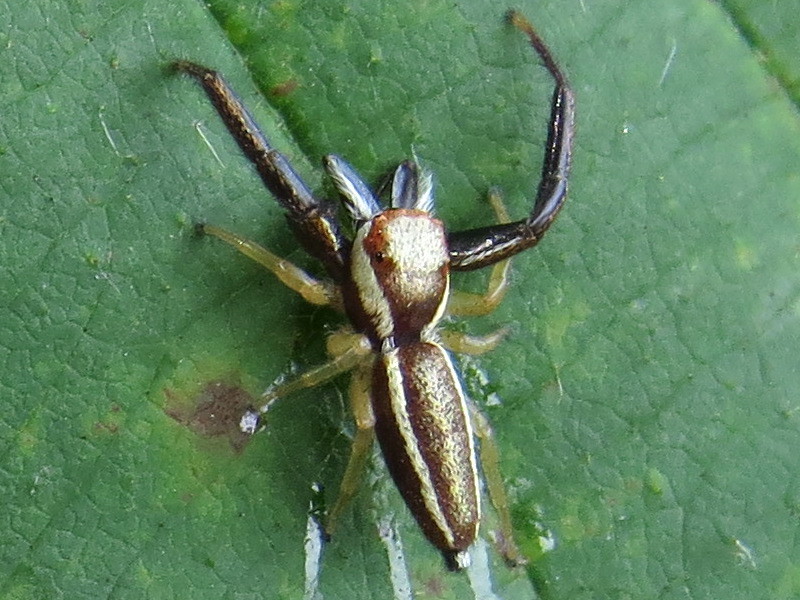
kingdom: Animalia
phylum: Arthropoda
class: Arachnida
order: Araneae
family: Salticidae
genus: Hentzia
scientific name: Hentzia palmarum
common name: Common hentz jumping spider
